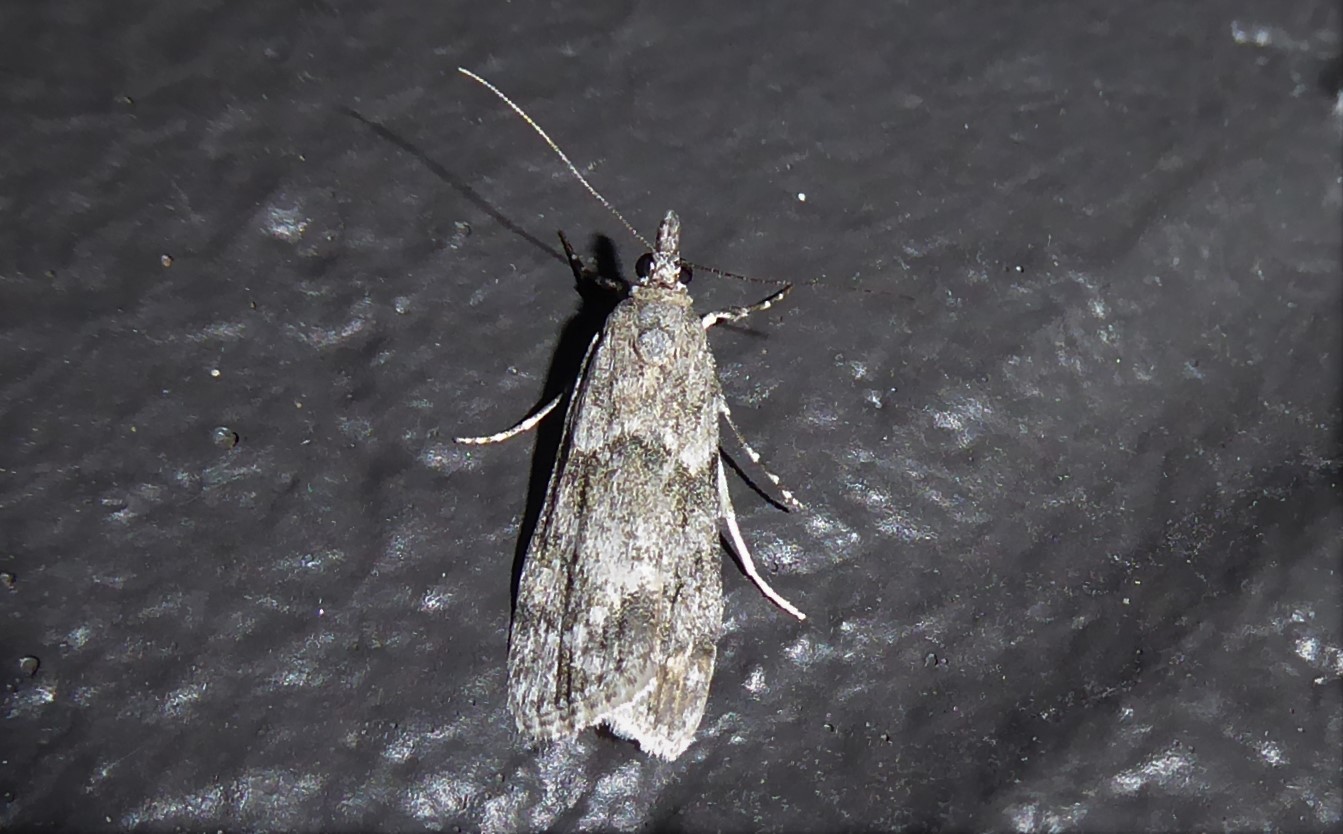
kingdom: Animalia
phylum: Arthropoda
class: Insecta
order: Lepidoptera
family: Crambidae
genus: Eudonia
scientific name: Eudonia rakaiensis
